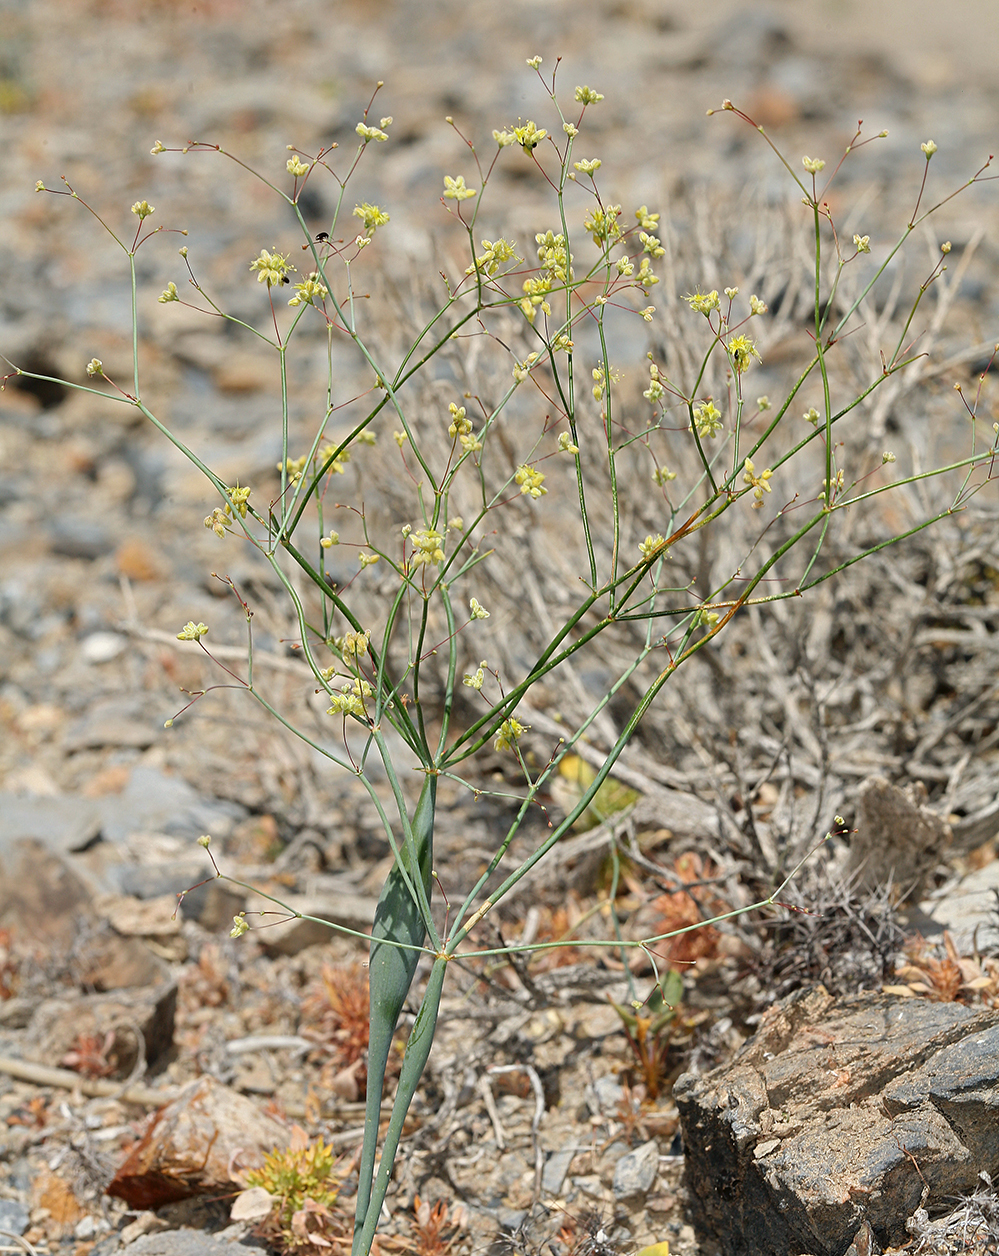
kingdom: Plantae
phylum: Tracheophyta
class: Magnoliopsida
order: Caryophyllales
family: Polygonaceae
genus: Eriogonum
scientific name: Eriogonum inflatum
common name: Desert trumpet
